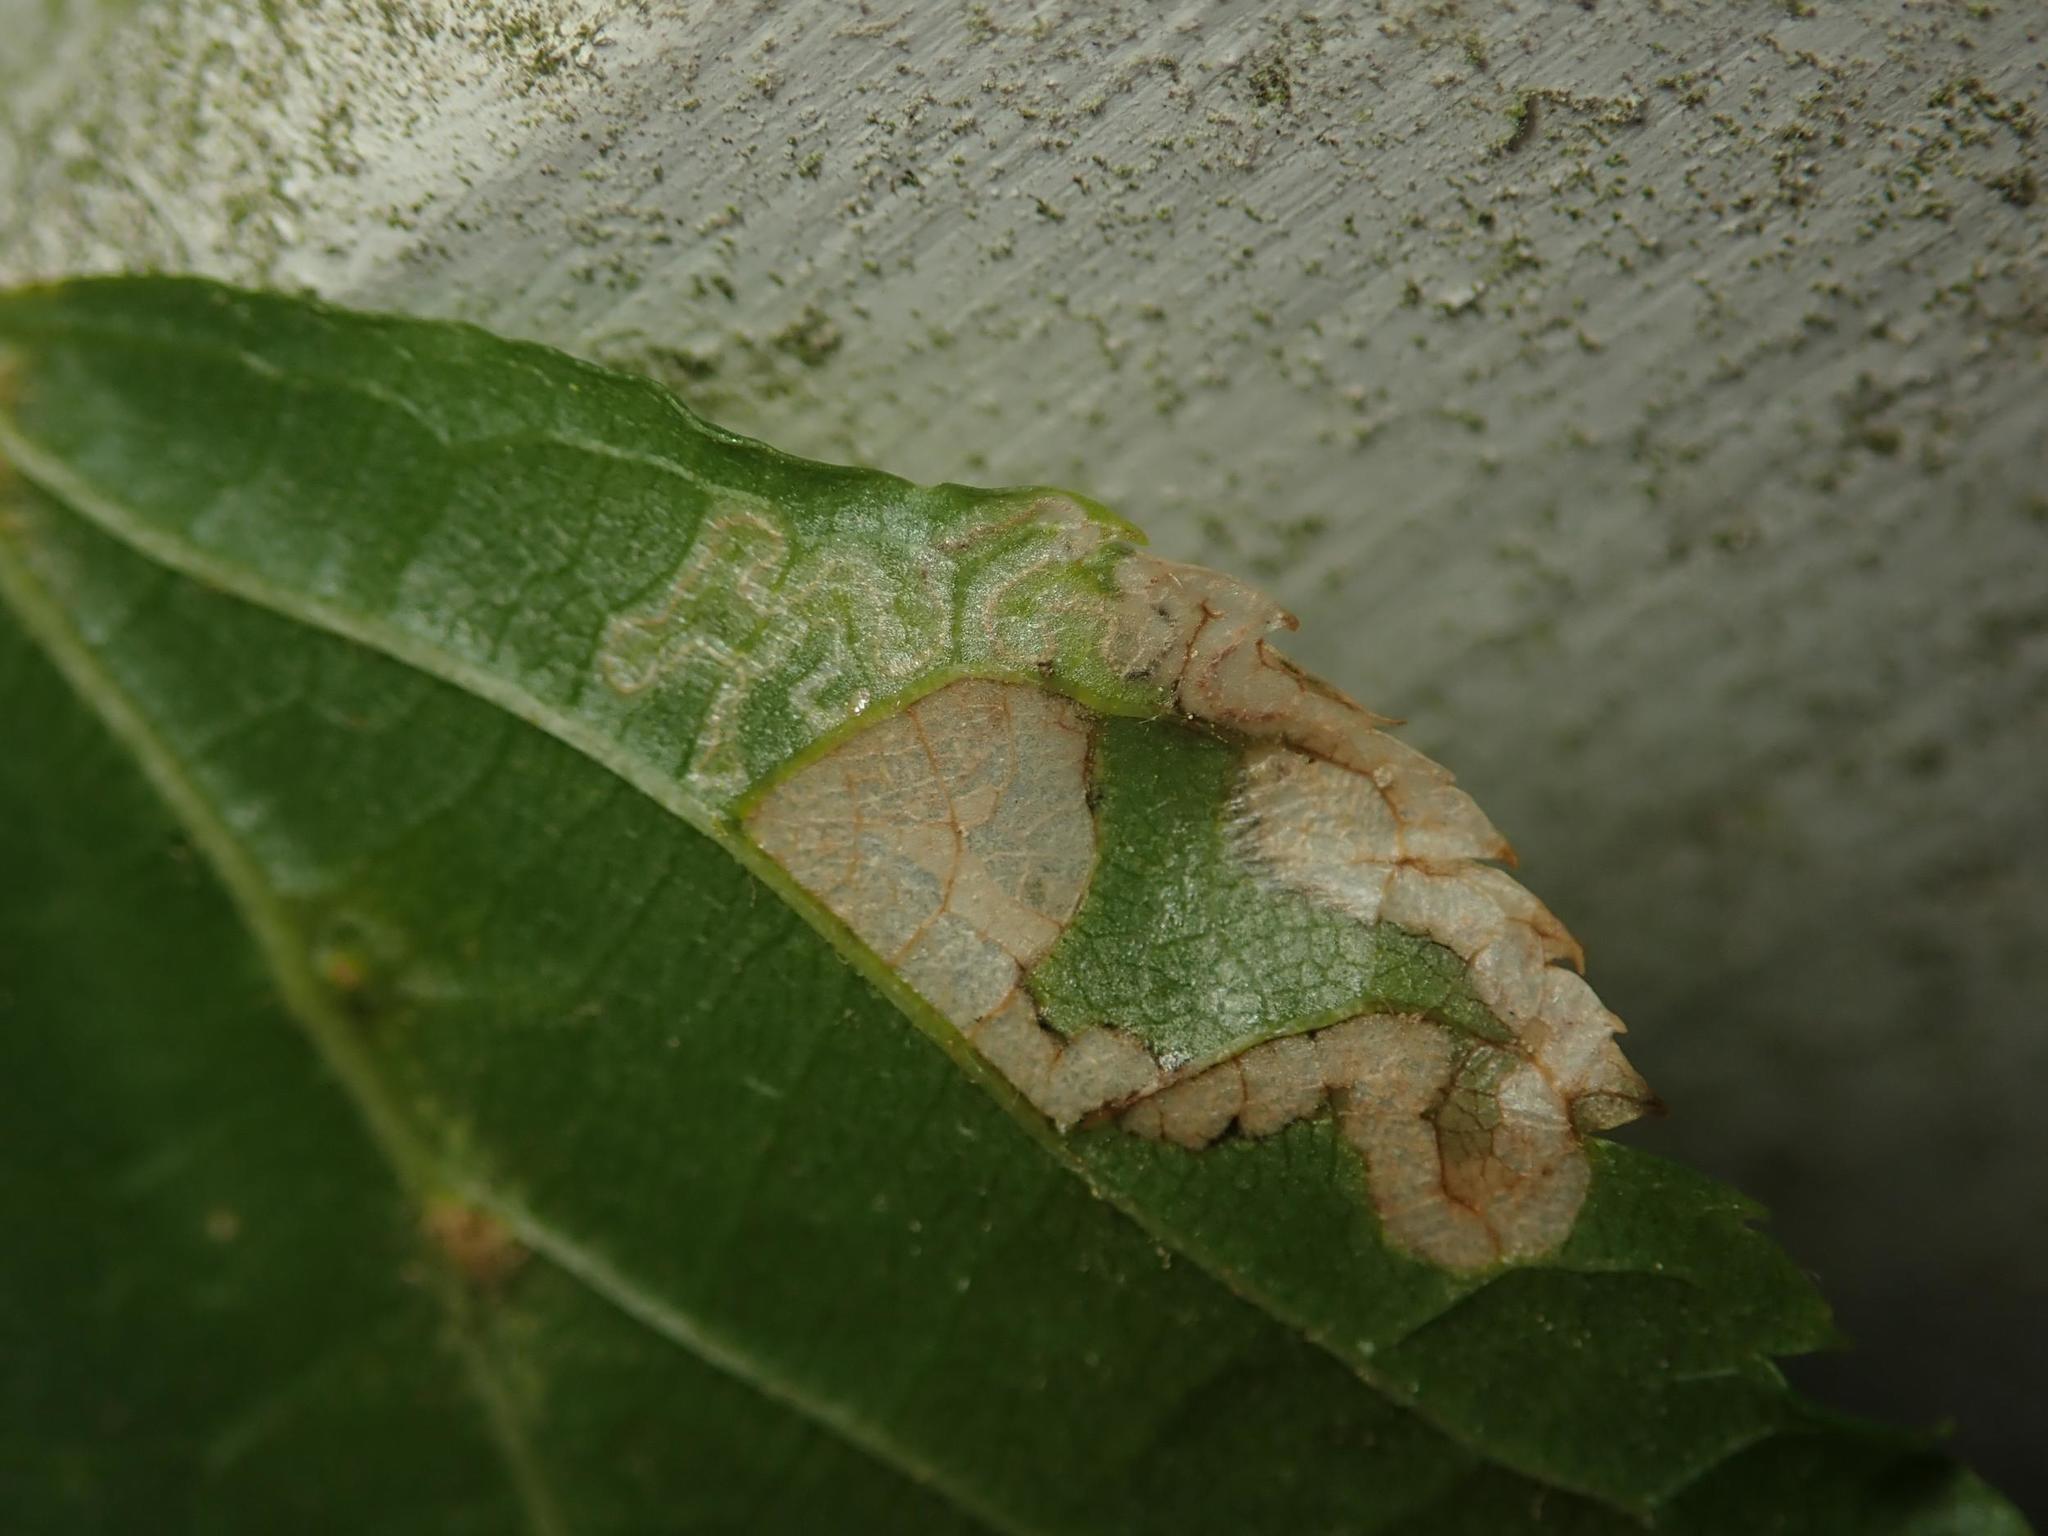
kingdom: Animalia
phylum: Arthropoda
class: Insecta
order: Lepidoptera
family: Nepticulidae
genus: Stigmella
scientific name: Stigmella tiliae
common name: Lime pigmy
